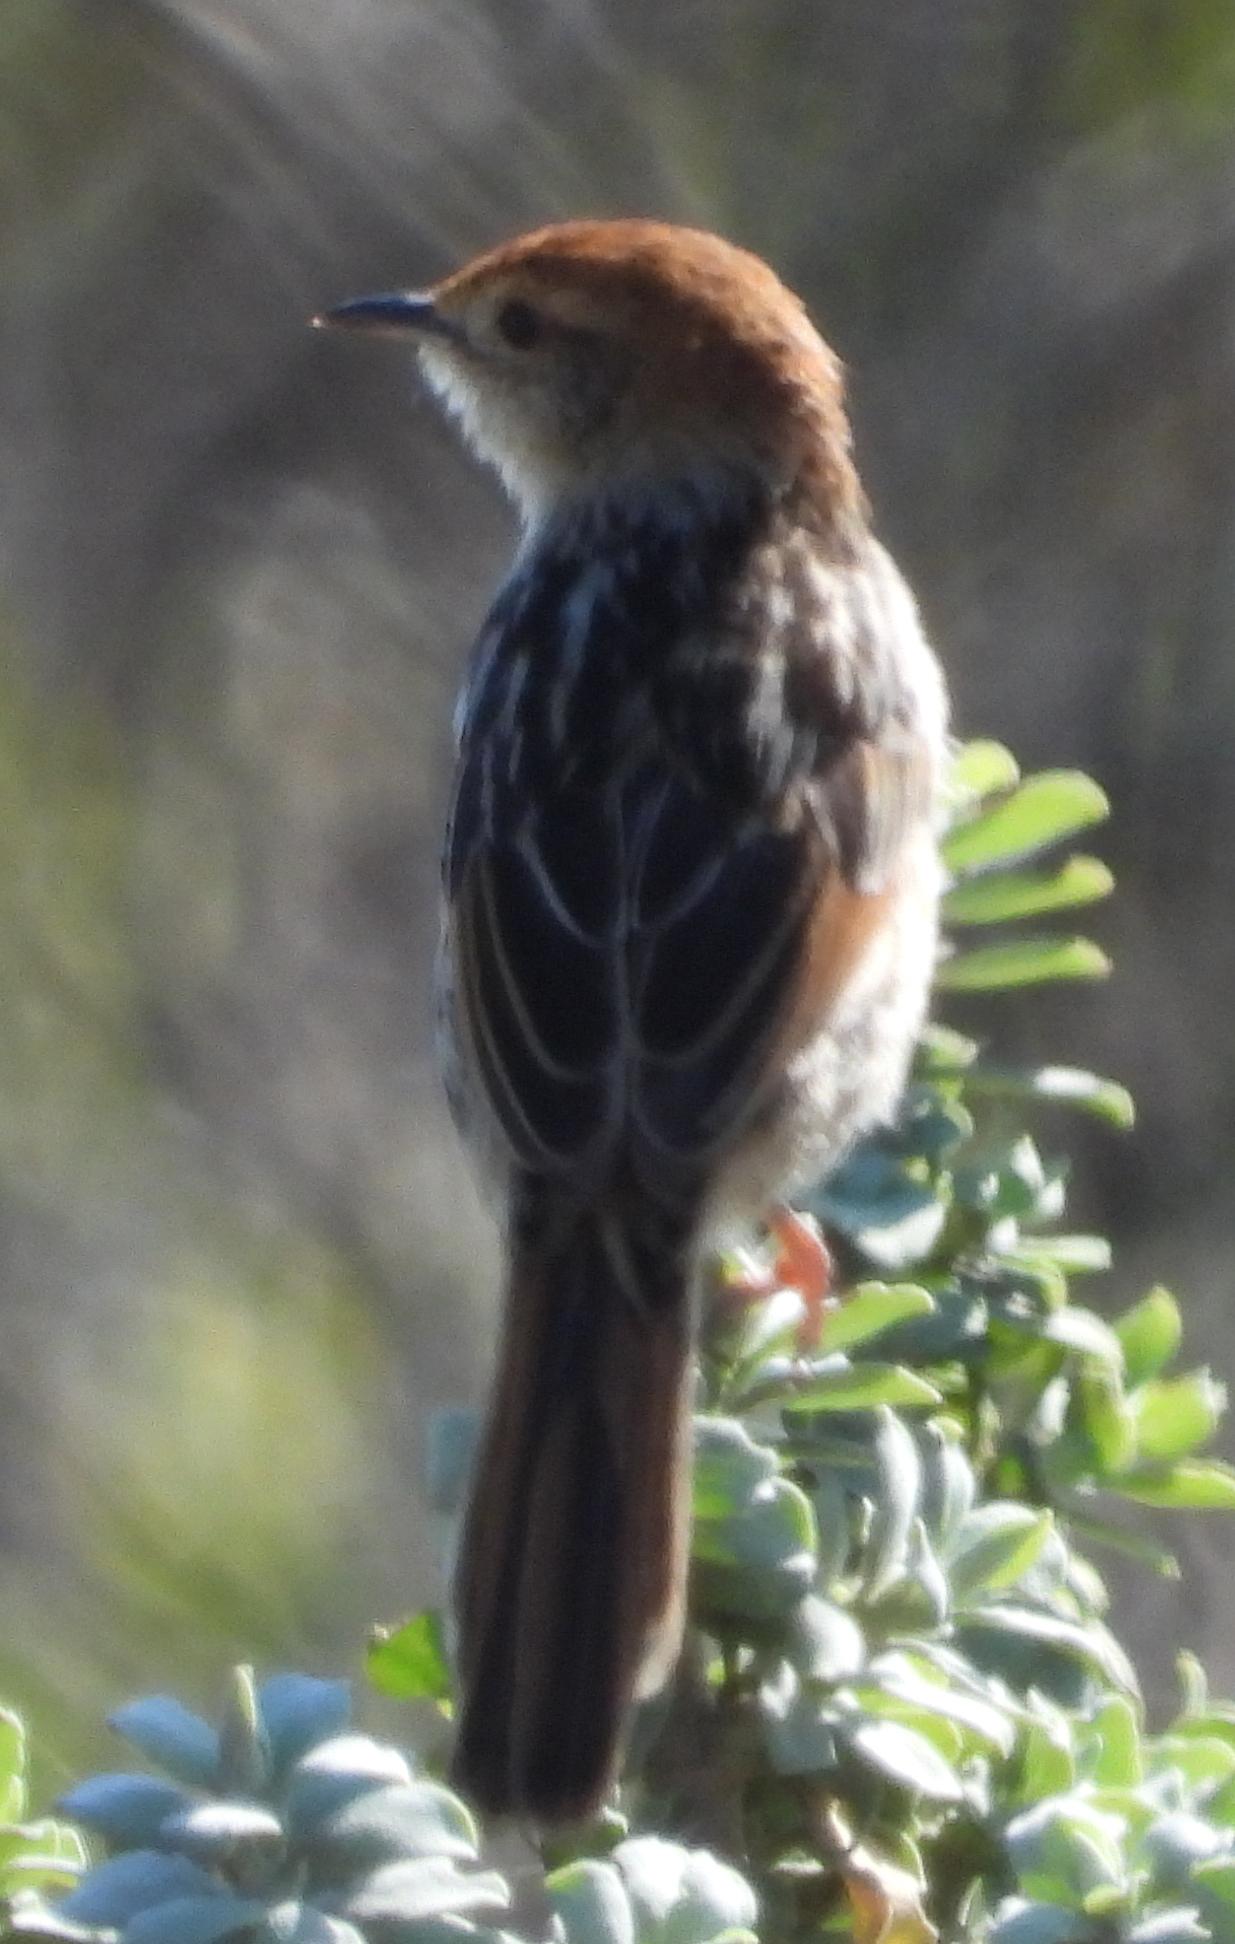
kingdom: Animalia
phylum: Chordata
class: Aves
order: Passeriformes
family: Cisticolidae
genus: Cisticola
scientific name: Cisticola tinniens
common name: Levaillant's cisticola
